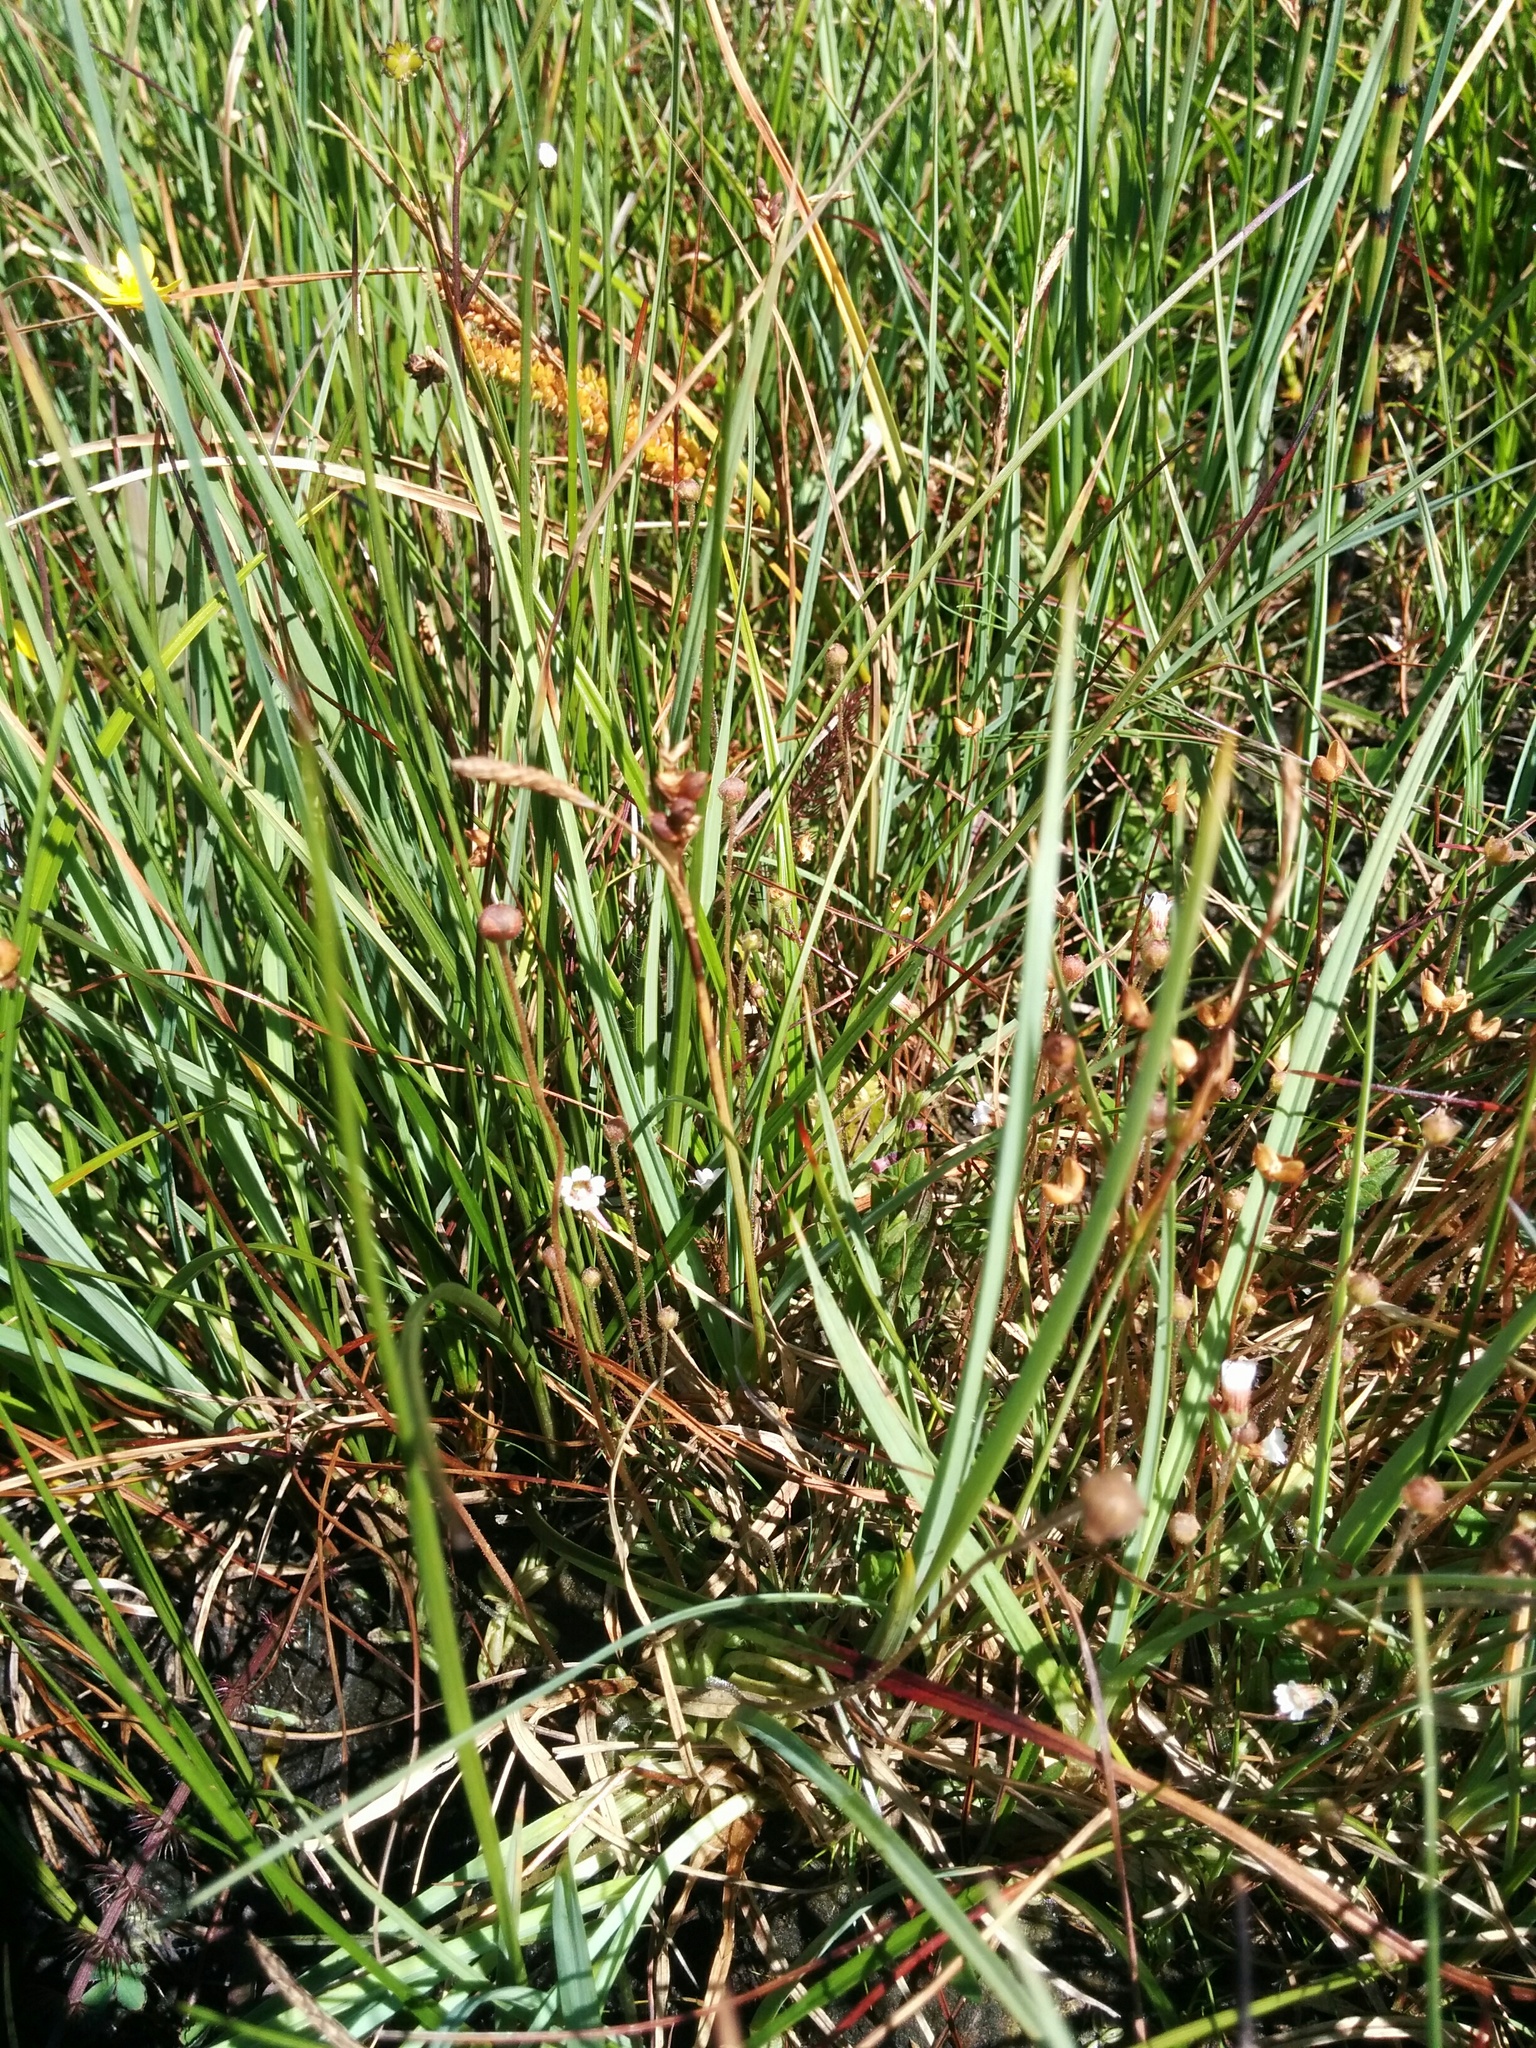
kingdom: Plantae
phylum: Tracheophyta
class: Magnoliopsida
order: Lamiales
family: Lentibulariaceae
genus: Pinguicula
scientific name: Pinguicula lusitanica
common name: Pale butterwort
